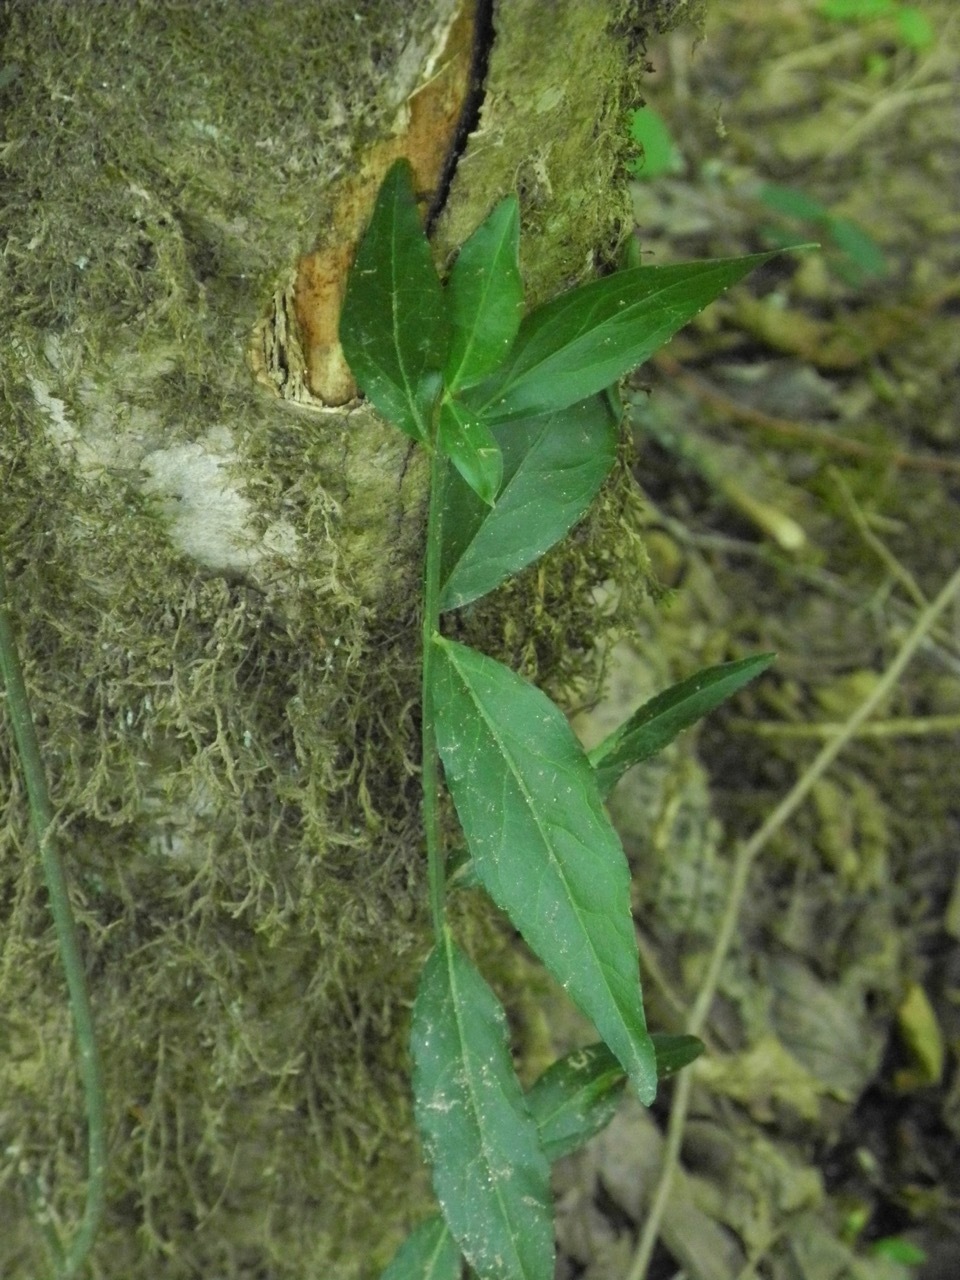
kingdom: Plantae
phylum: Tracheophyta
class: Magnoliopsida
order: Celastrales
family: Celastraceae
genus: Euonymus
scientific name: Euonymus americanus
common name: Bursting-heart
